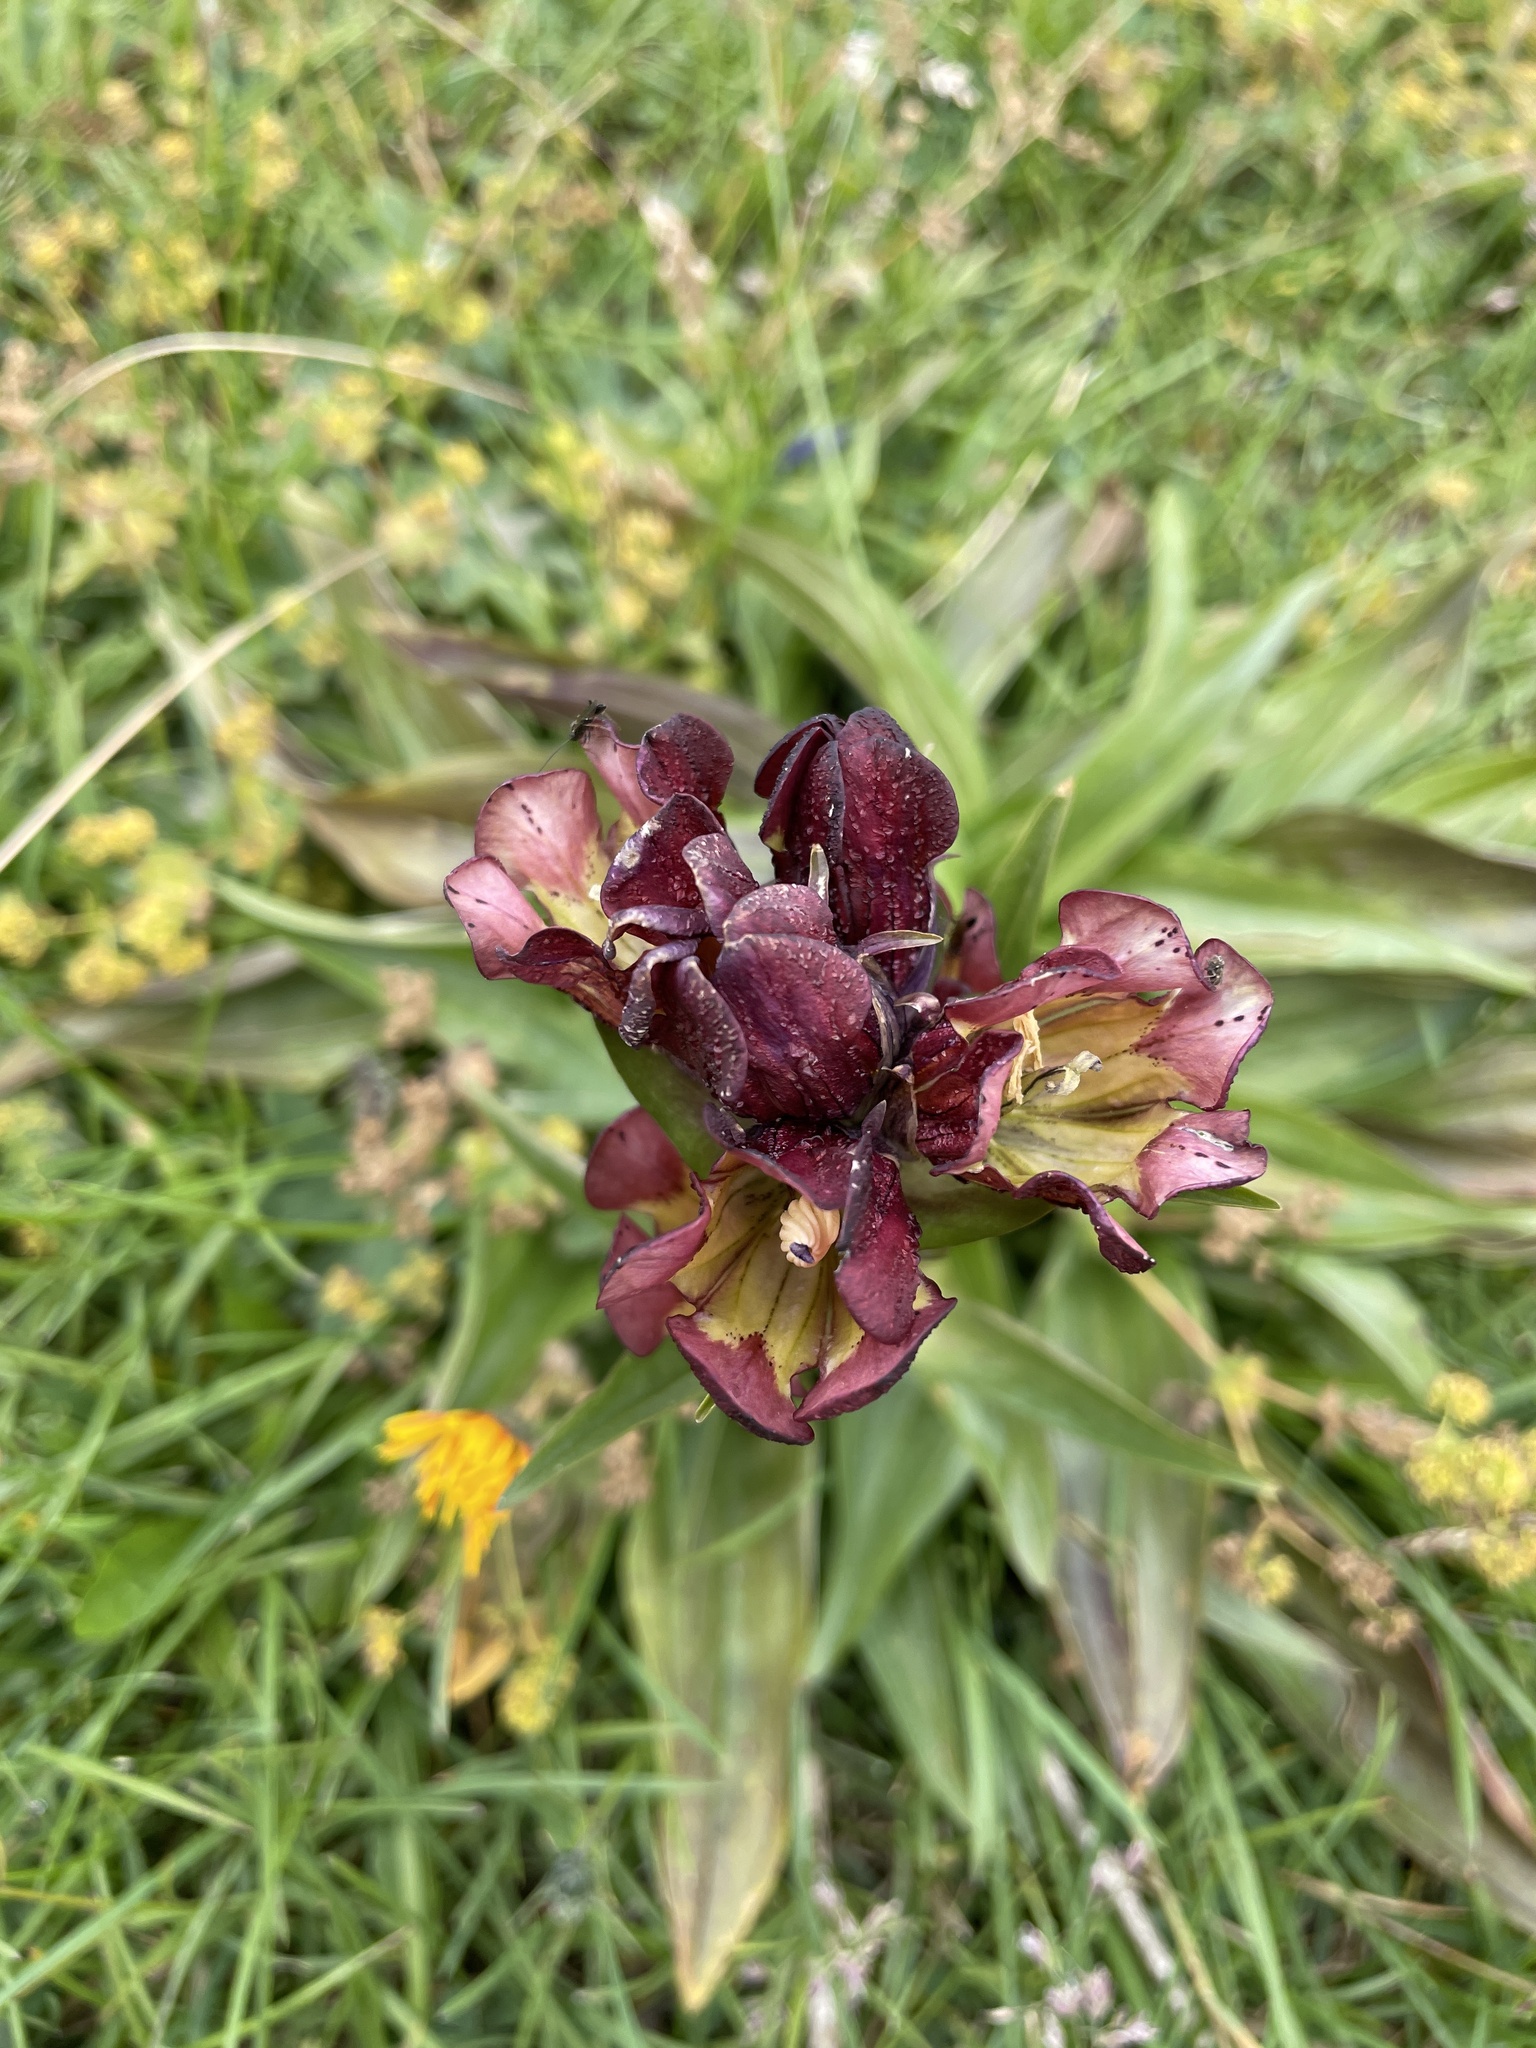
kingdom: Plantae
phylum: Tracheophyta
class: Magnoliopsida
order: Gentianales
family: Gentianaceae
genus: Gentiana
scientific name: Gentiana purpurea
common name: Purple gentian
